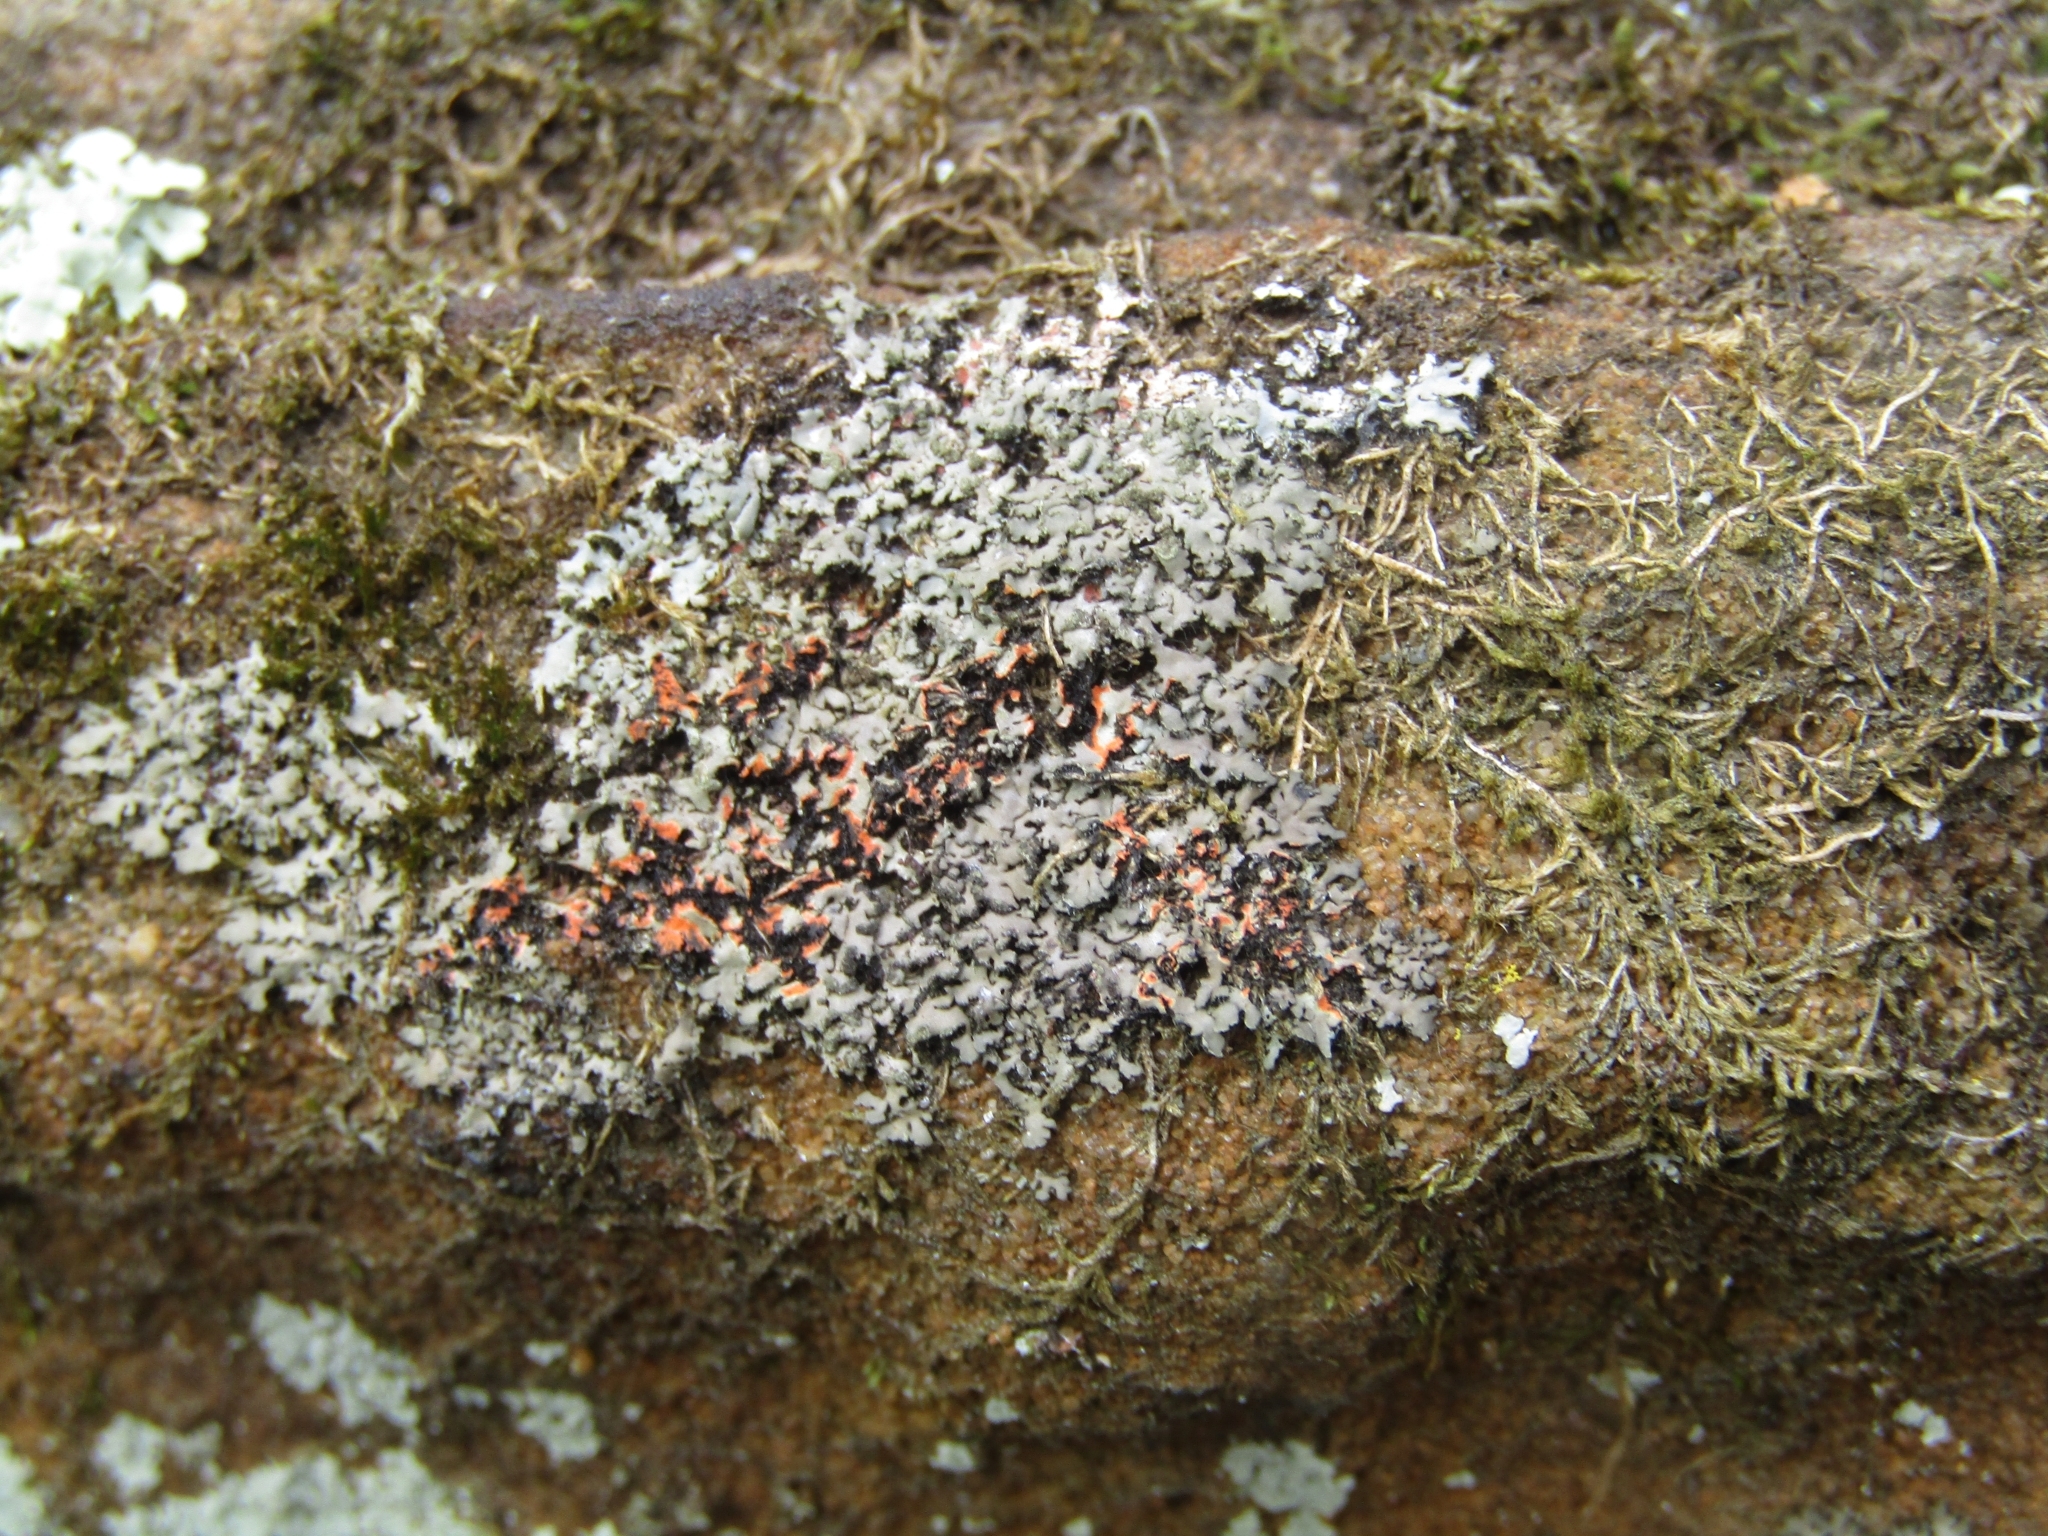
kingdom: Fungi
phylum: Ascomycota
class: Lecanoromycetes
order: Caliciales
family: Physciaceae
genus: Phaeophyscia
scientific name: Phaeophyscia rubropulchra
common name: Orange-cored shadow lichen
